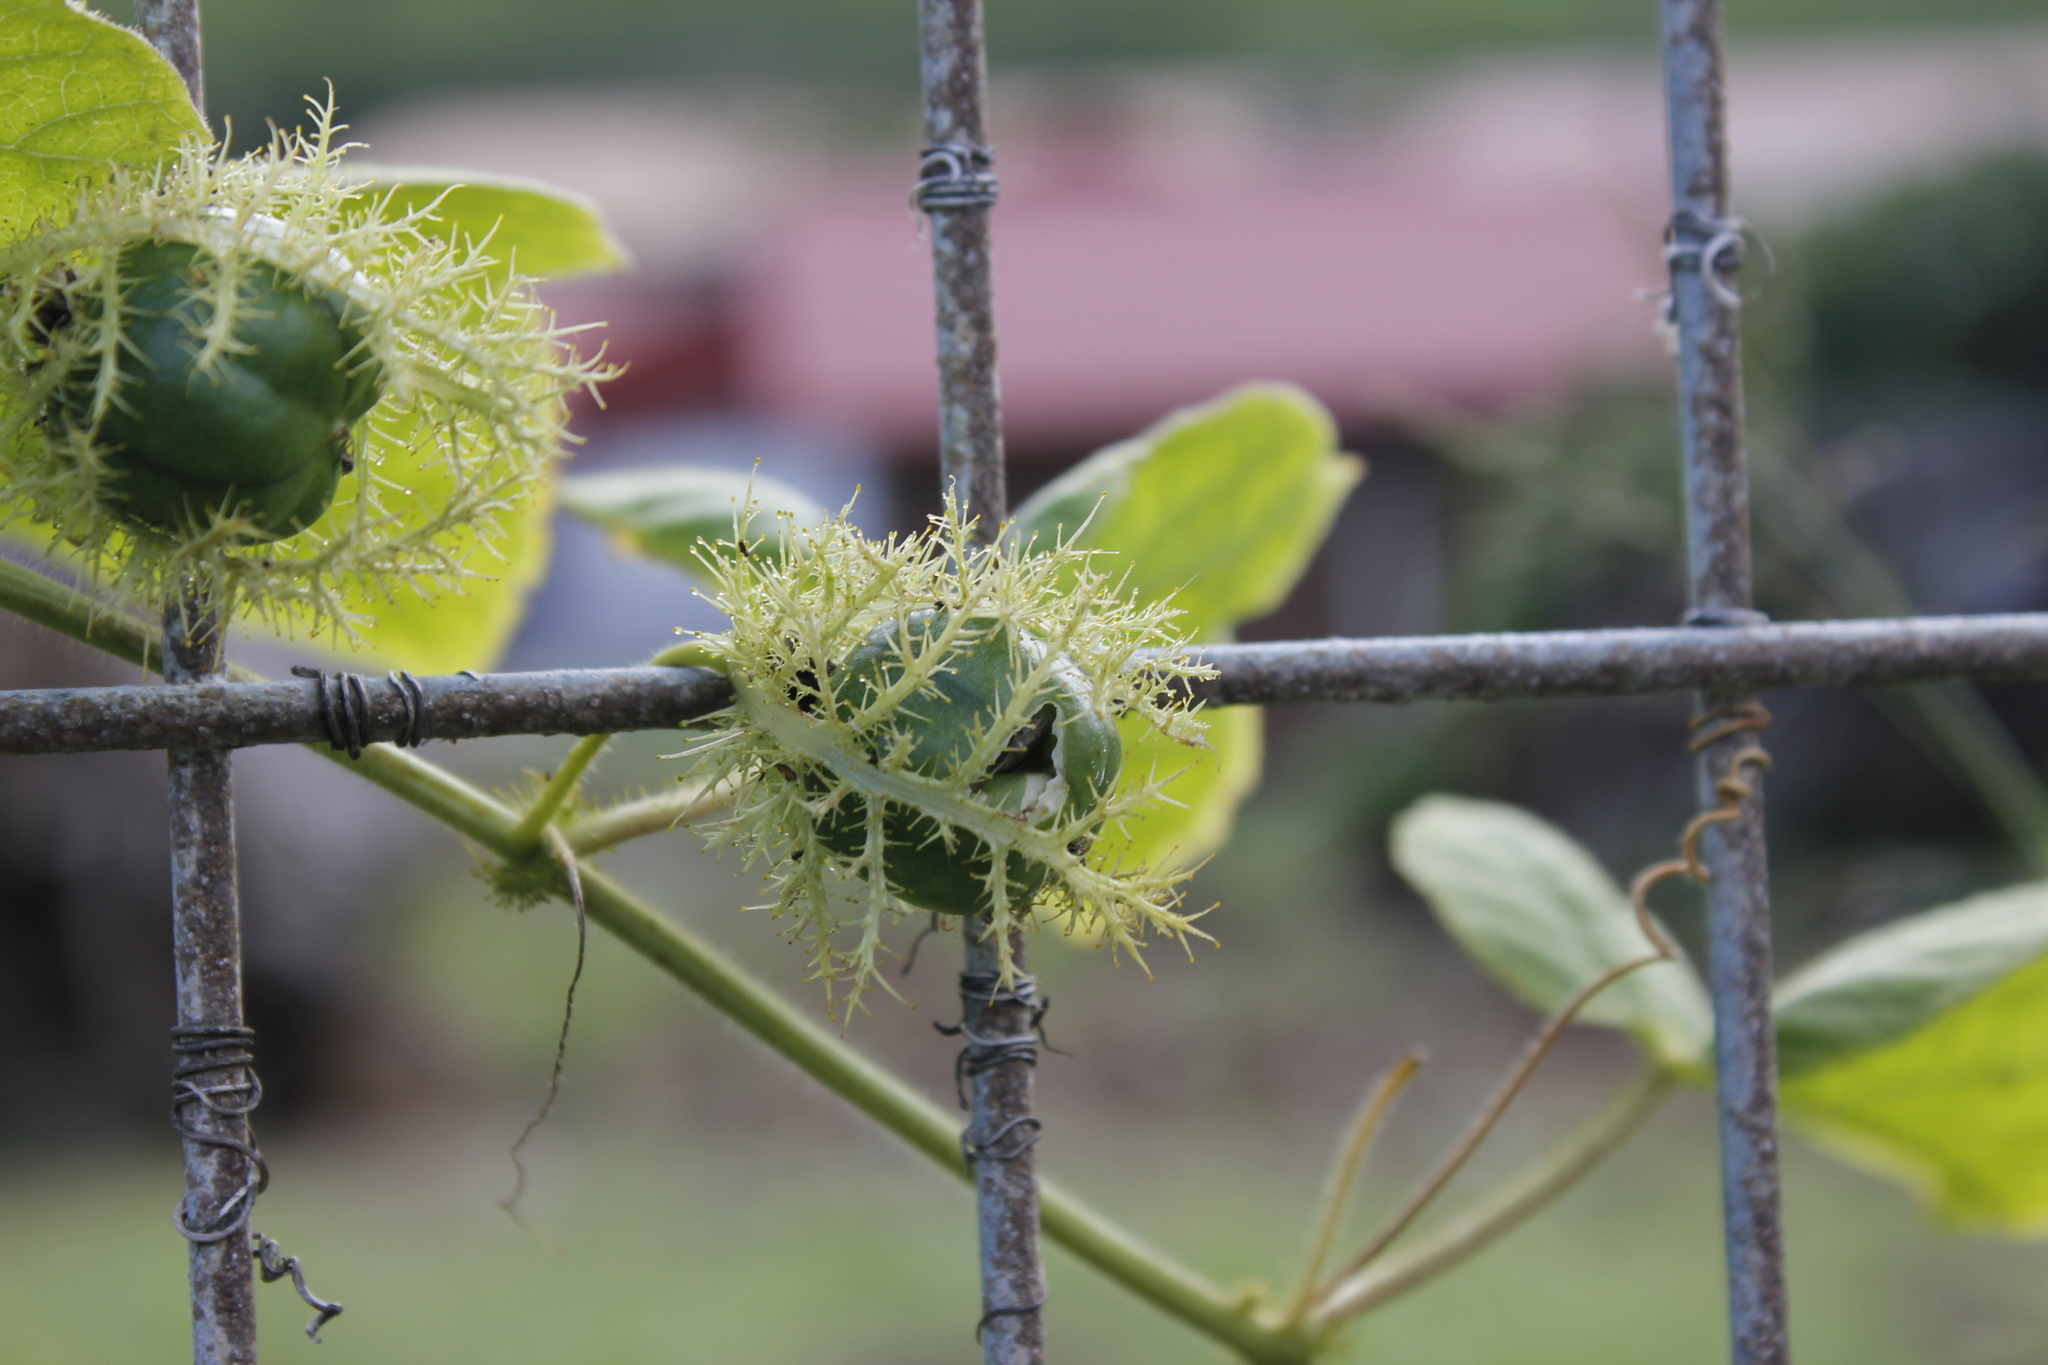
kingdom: Plantae
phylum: Tracheophyta
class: Magnoliopsida
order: Malpighiales
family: Passifloraceae
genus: Passiflora
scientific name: Passiflora vesicaria
